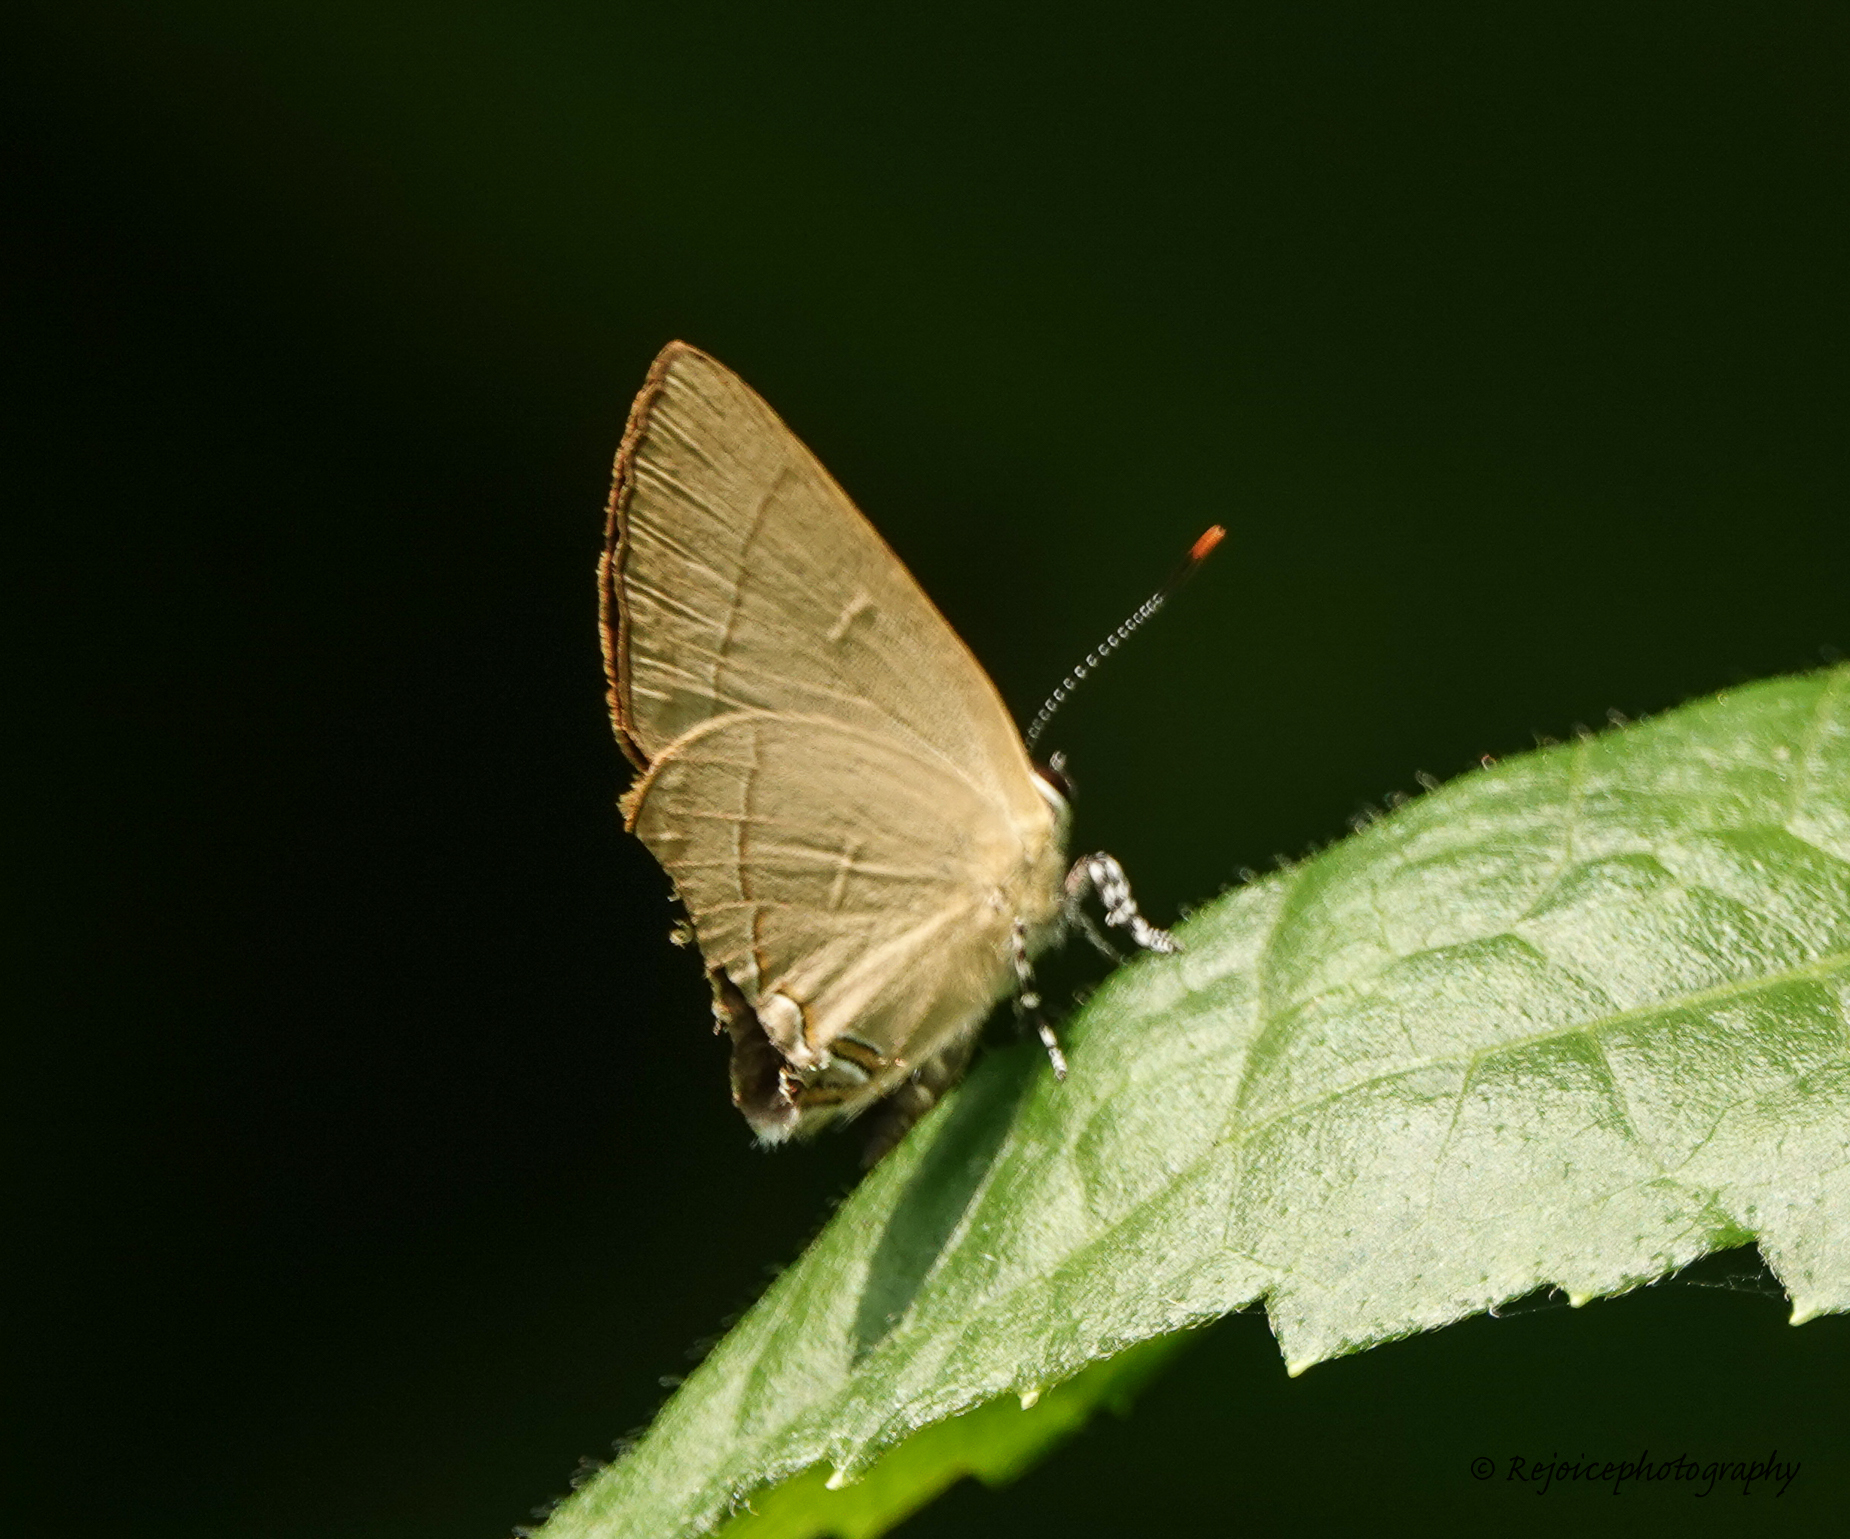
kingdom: Animalia
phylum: Arthropoda
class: Insecta
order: Lepidoptera
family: Lycaenidae
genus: Rapala
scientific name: Rapala iarbus
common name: Common red flash
